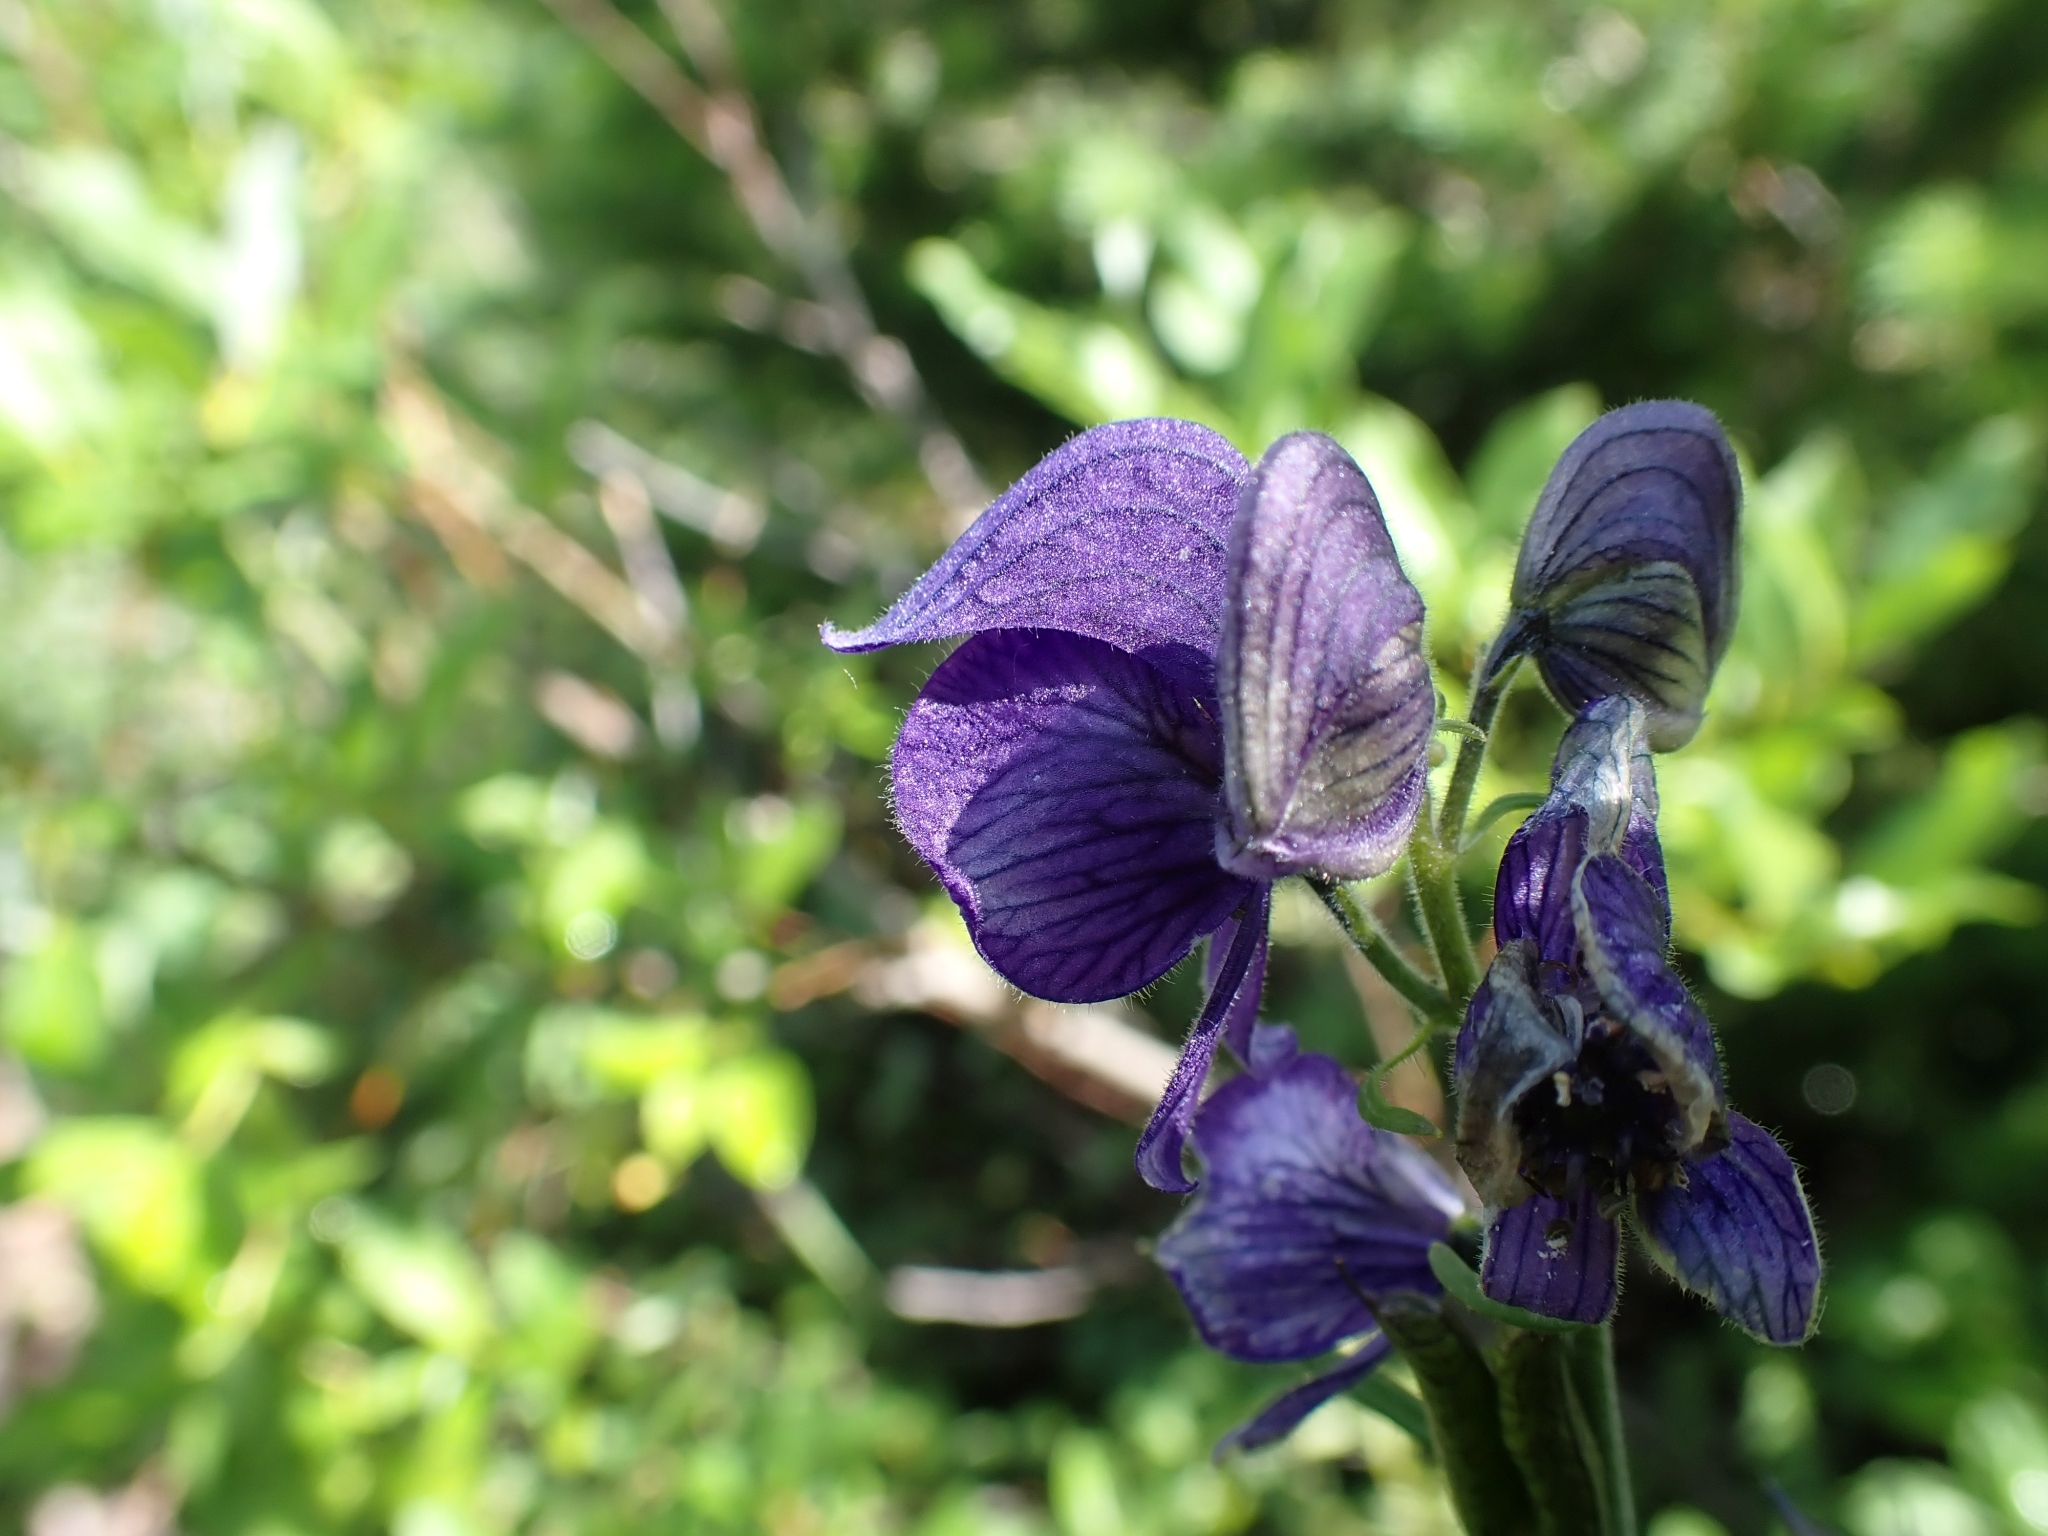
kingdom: Plantae
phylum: Tracheophyta
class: Magnoliopsida
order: Ranunculales
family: Ranunculaceae
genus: Aconitum
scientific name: Aconitum delphiniifolium
